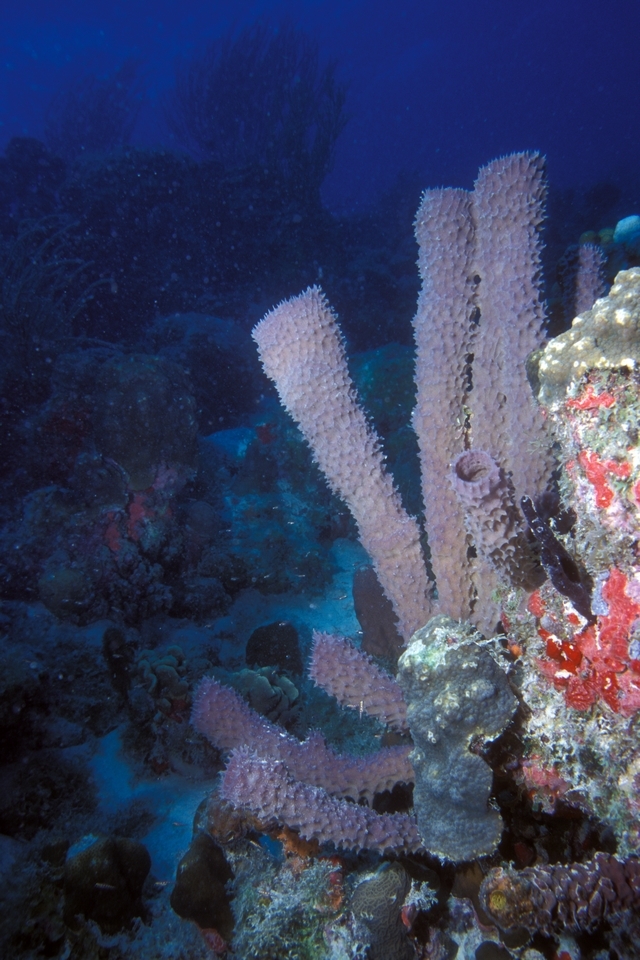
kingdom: Animalia
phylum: Porifera
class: Demospongiae
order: Haplosclerida
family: Callyspongiidae
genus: Callyspongia
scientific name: Callyspongia aculeata
